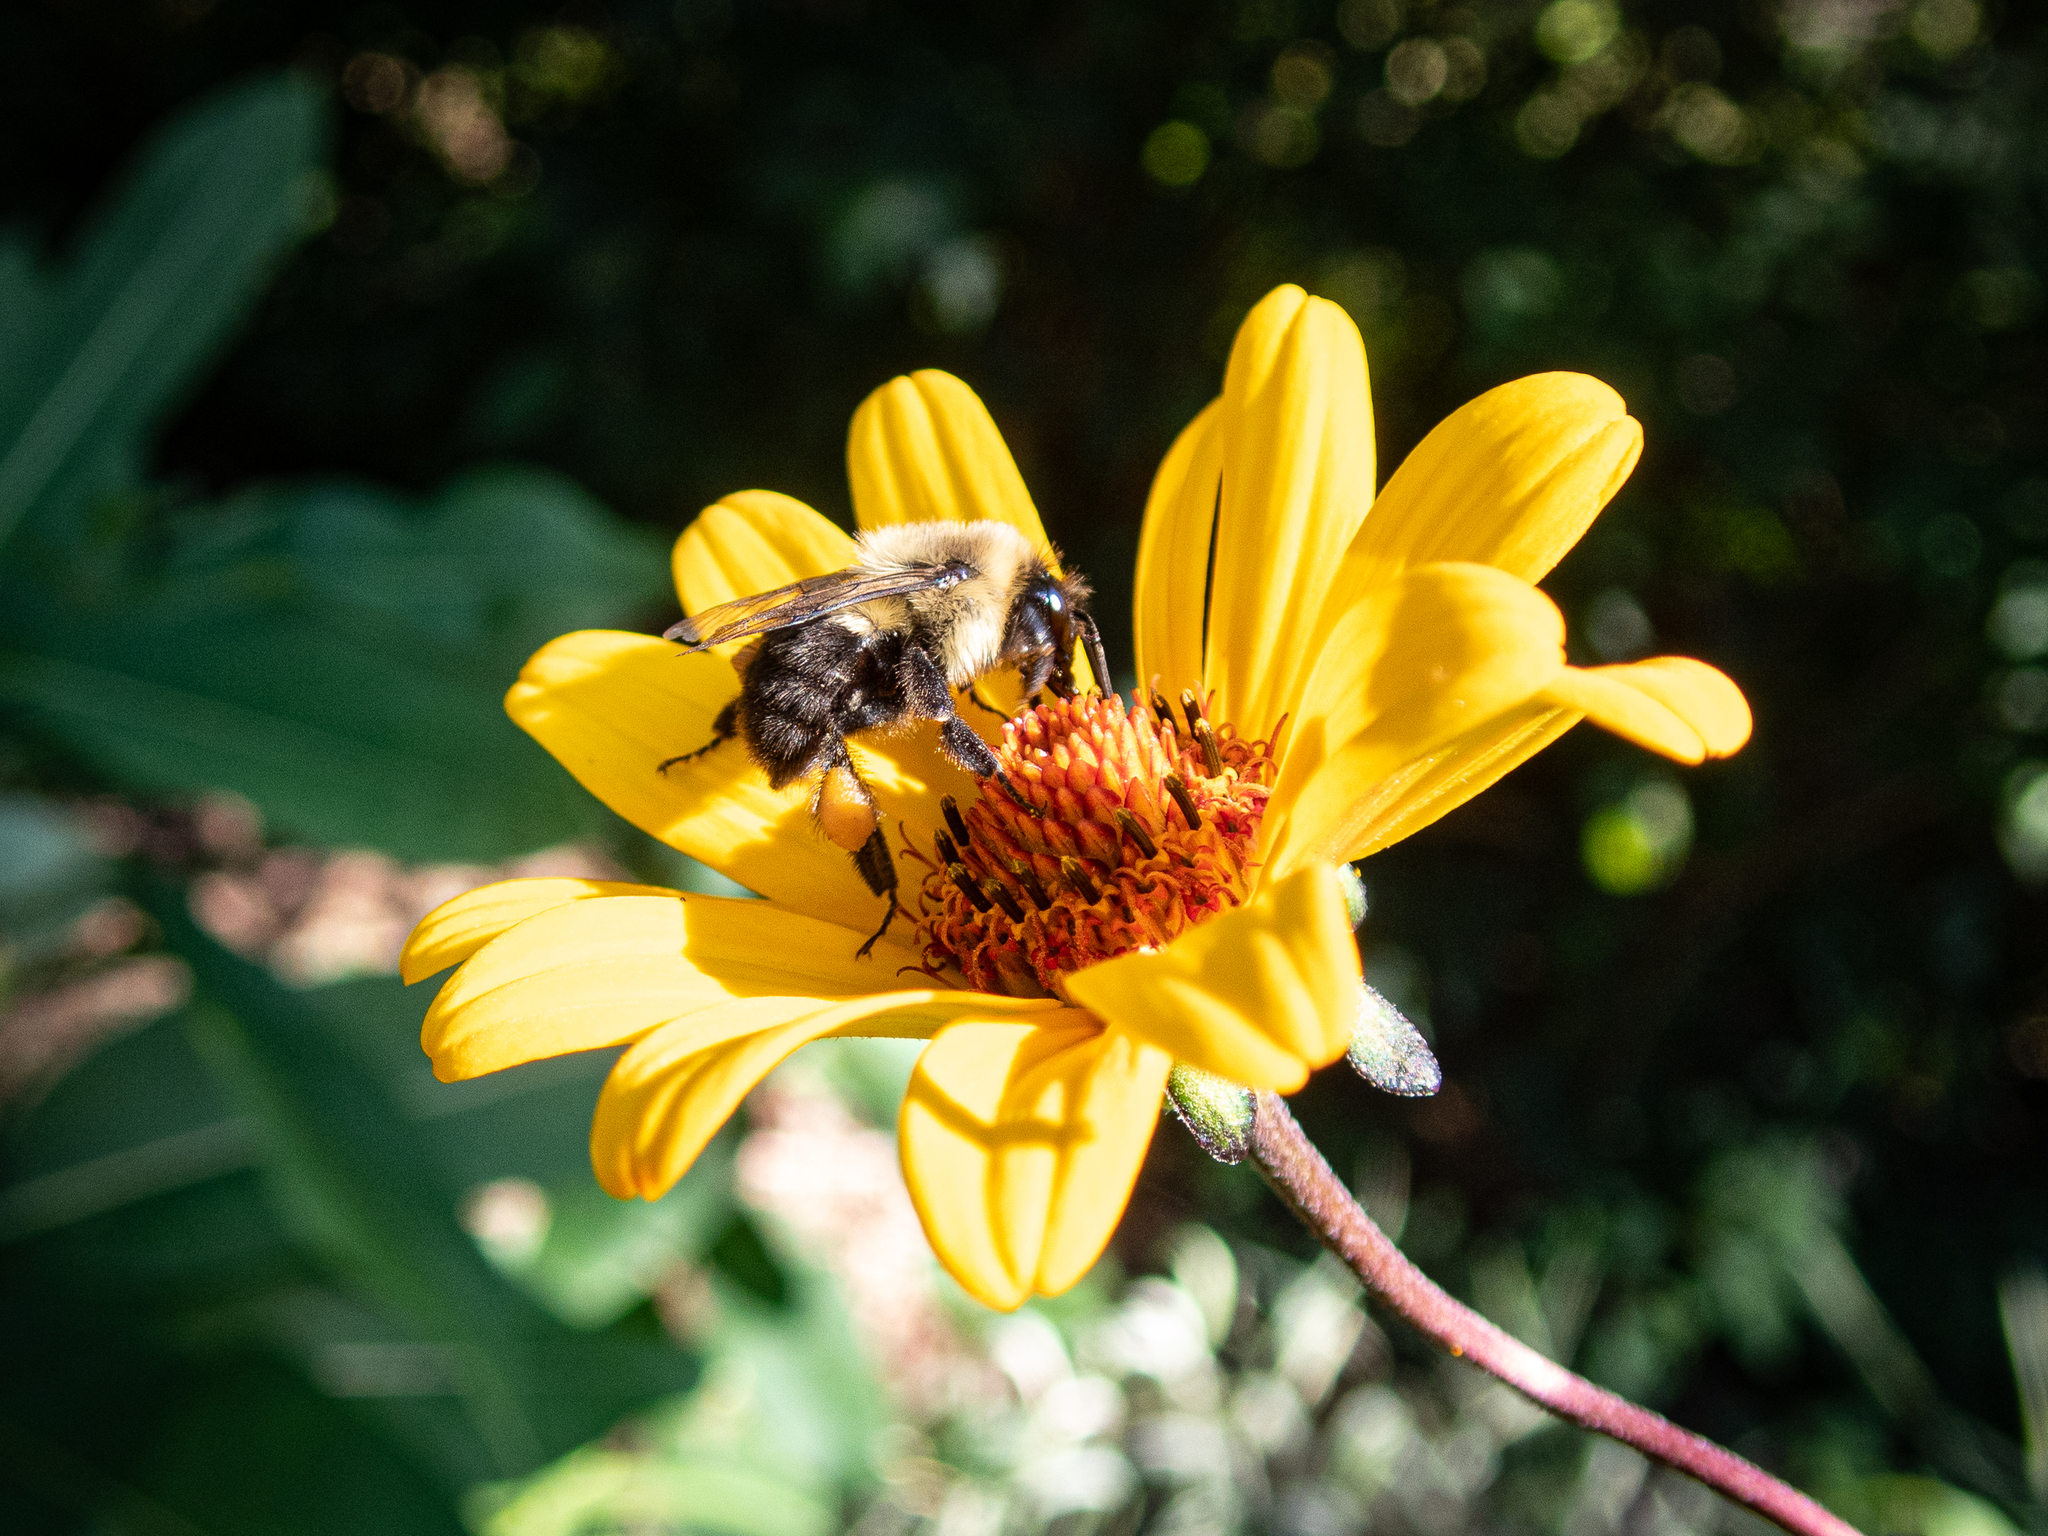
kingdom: Animalia
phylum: Arthropoda
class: Insecta
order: Hymenoptera
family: Apidae
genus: Bombus
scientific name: Bombus impatiens
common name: Common eastern bumble bee
